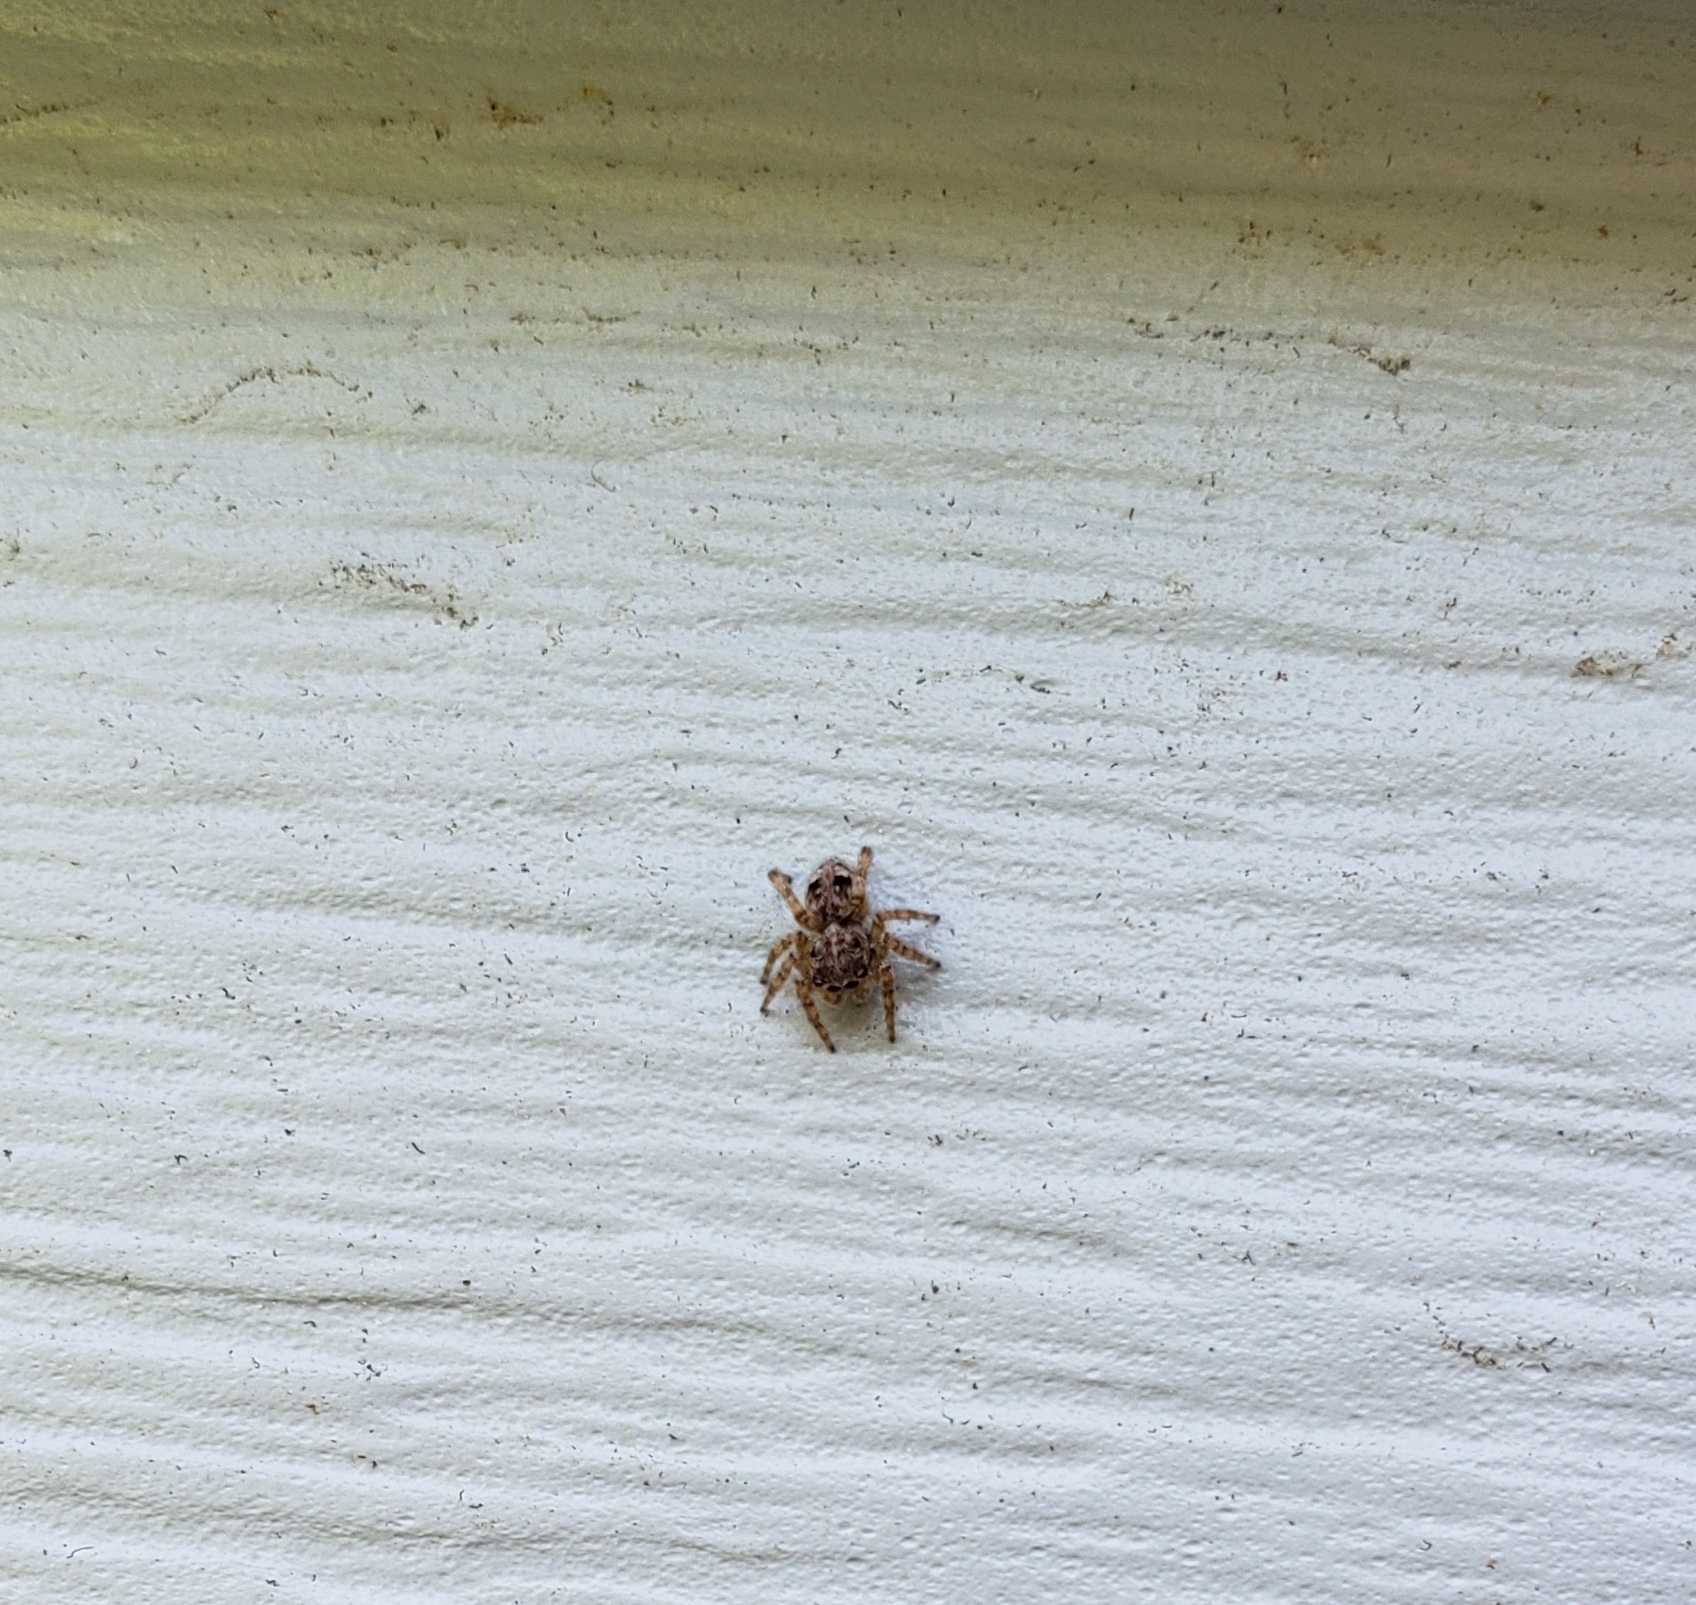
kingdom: Animalia
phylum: Arthropoda
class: Arachnida
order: Araneae
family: Salticidae
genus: Attulus
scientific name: Attulus fasciger
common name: Asiatic wall jumping spider
